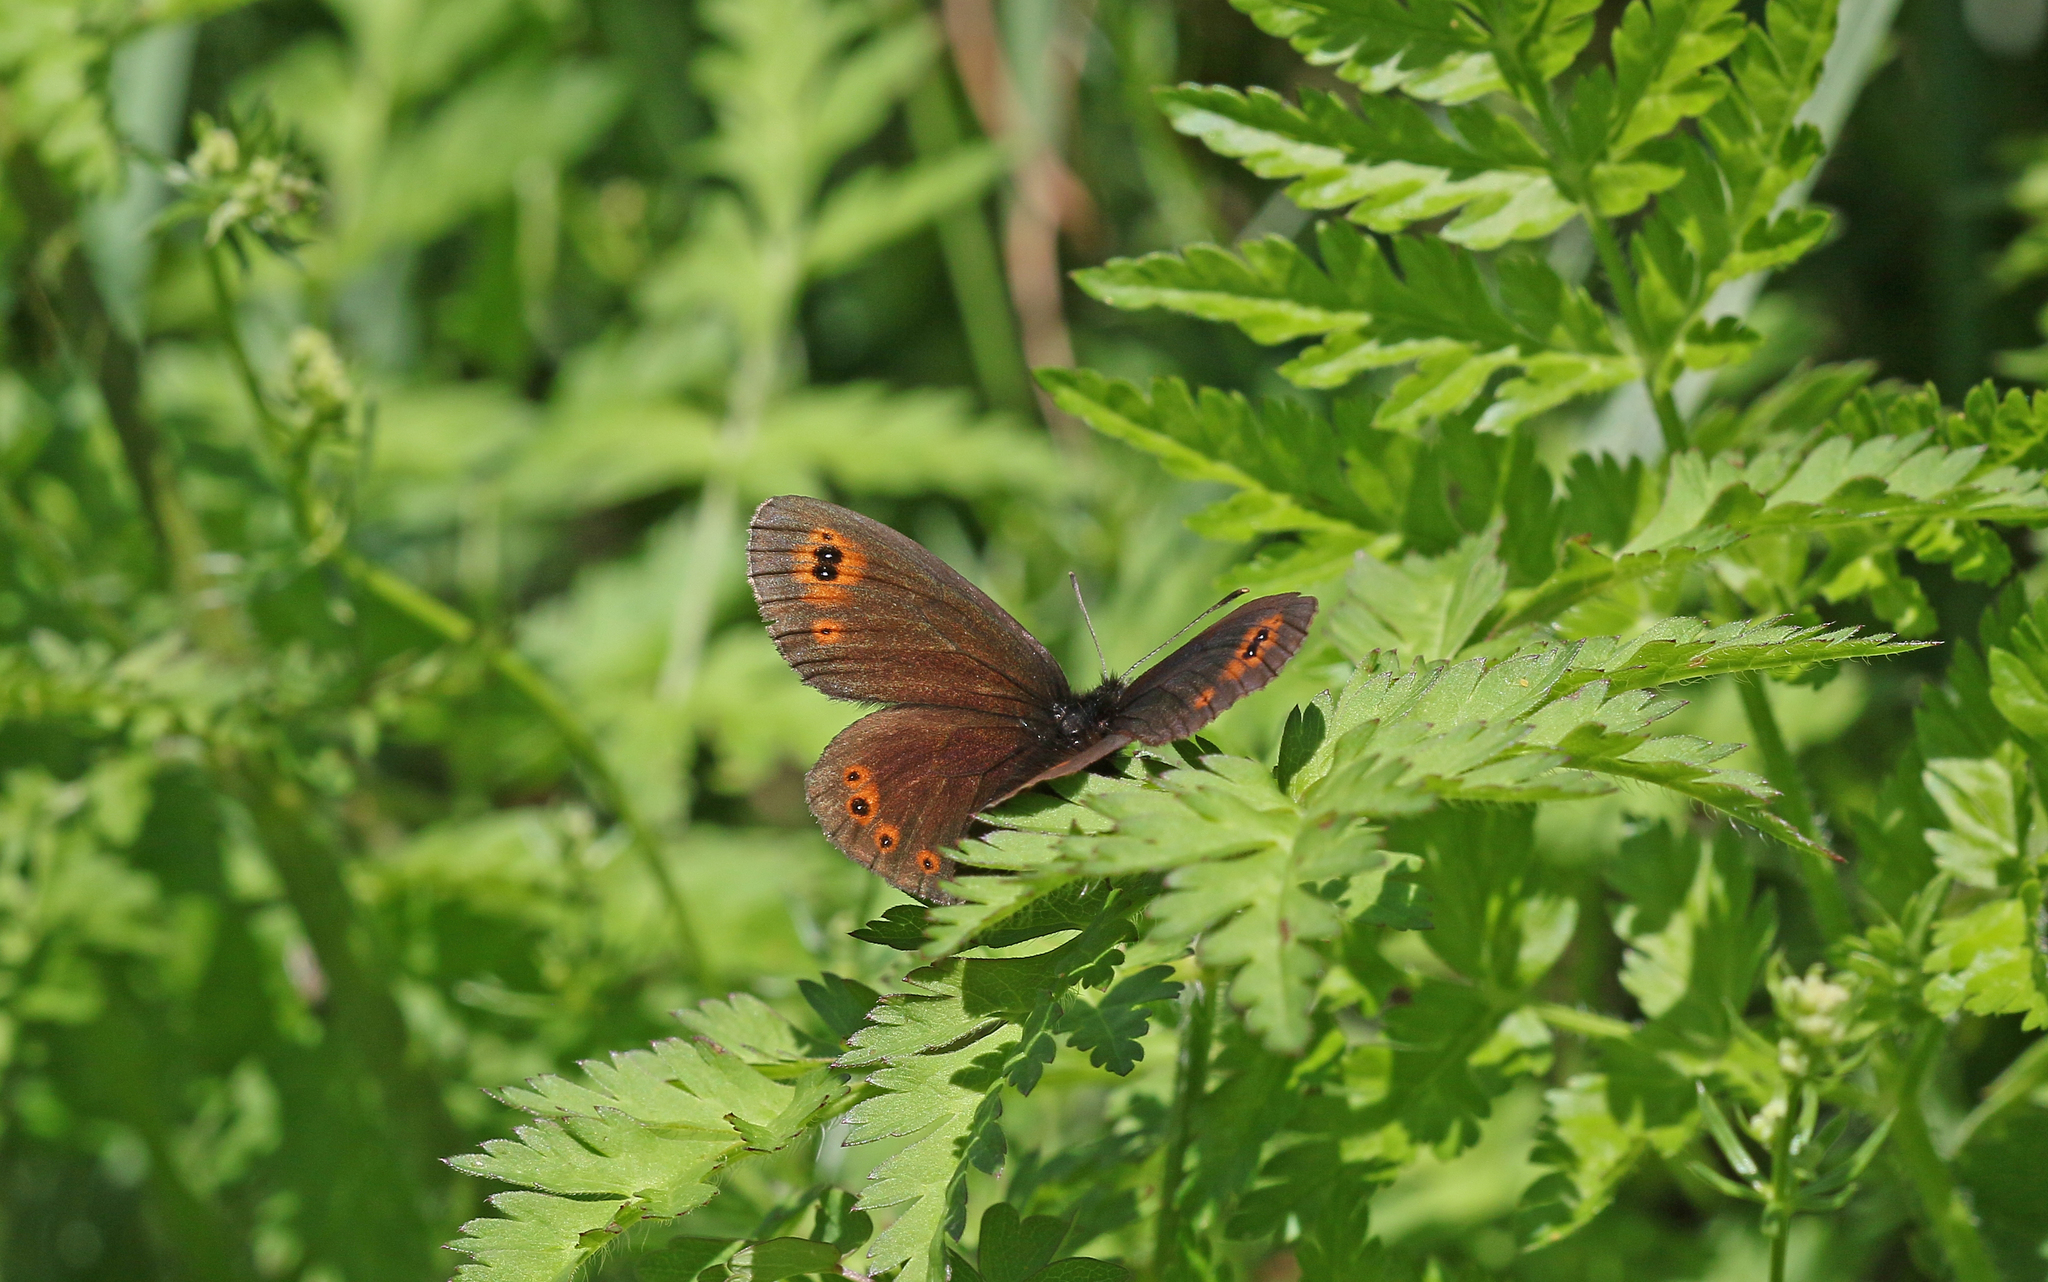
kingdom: Animalia
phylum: Arthropoda
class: Insecta
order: Lepidoptera
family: Nymphalidae
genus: Erebia
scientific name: Erebia medusa
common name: Woodland ringlet
